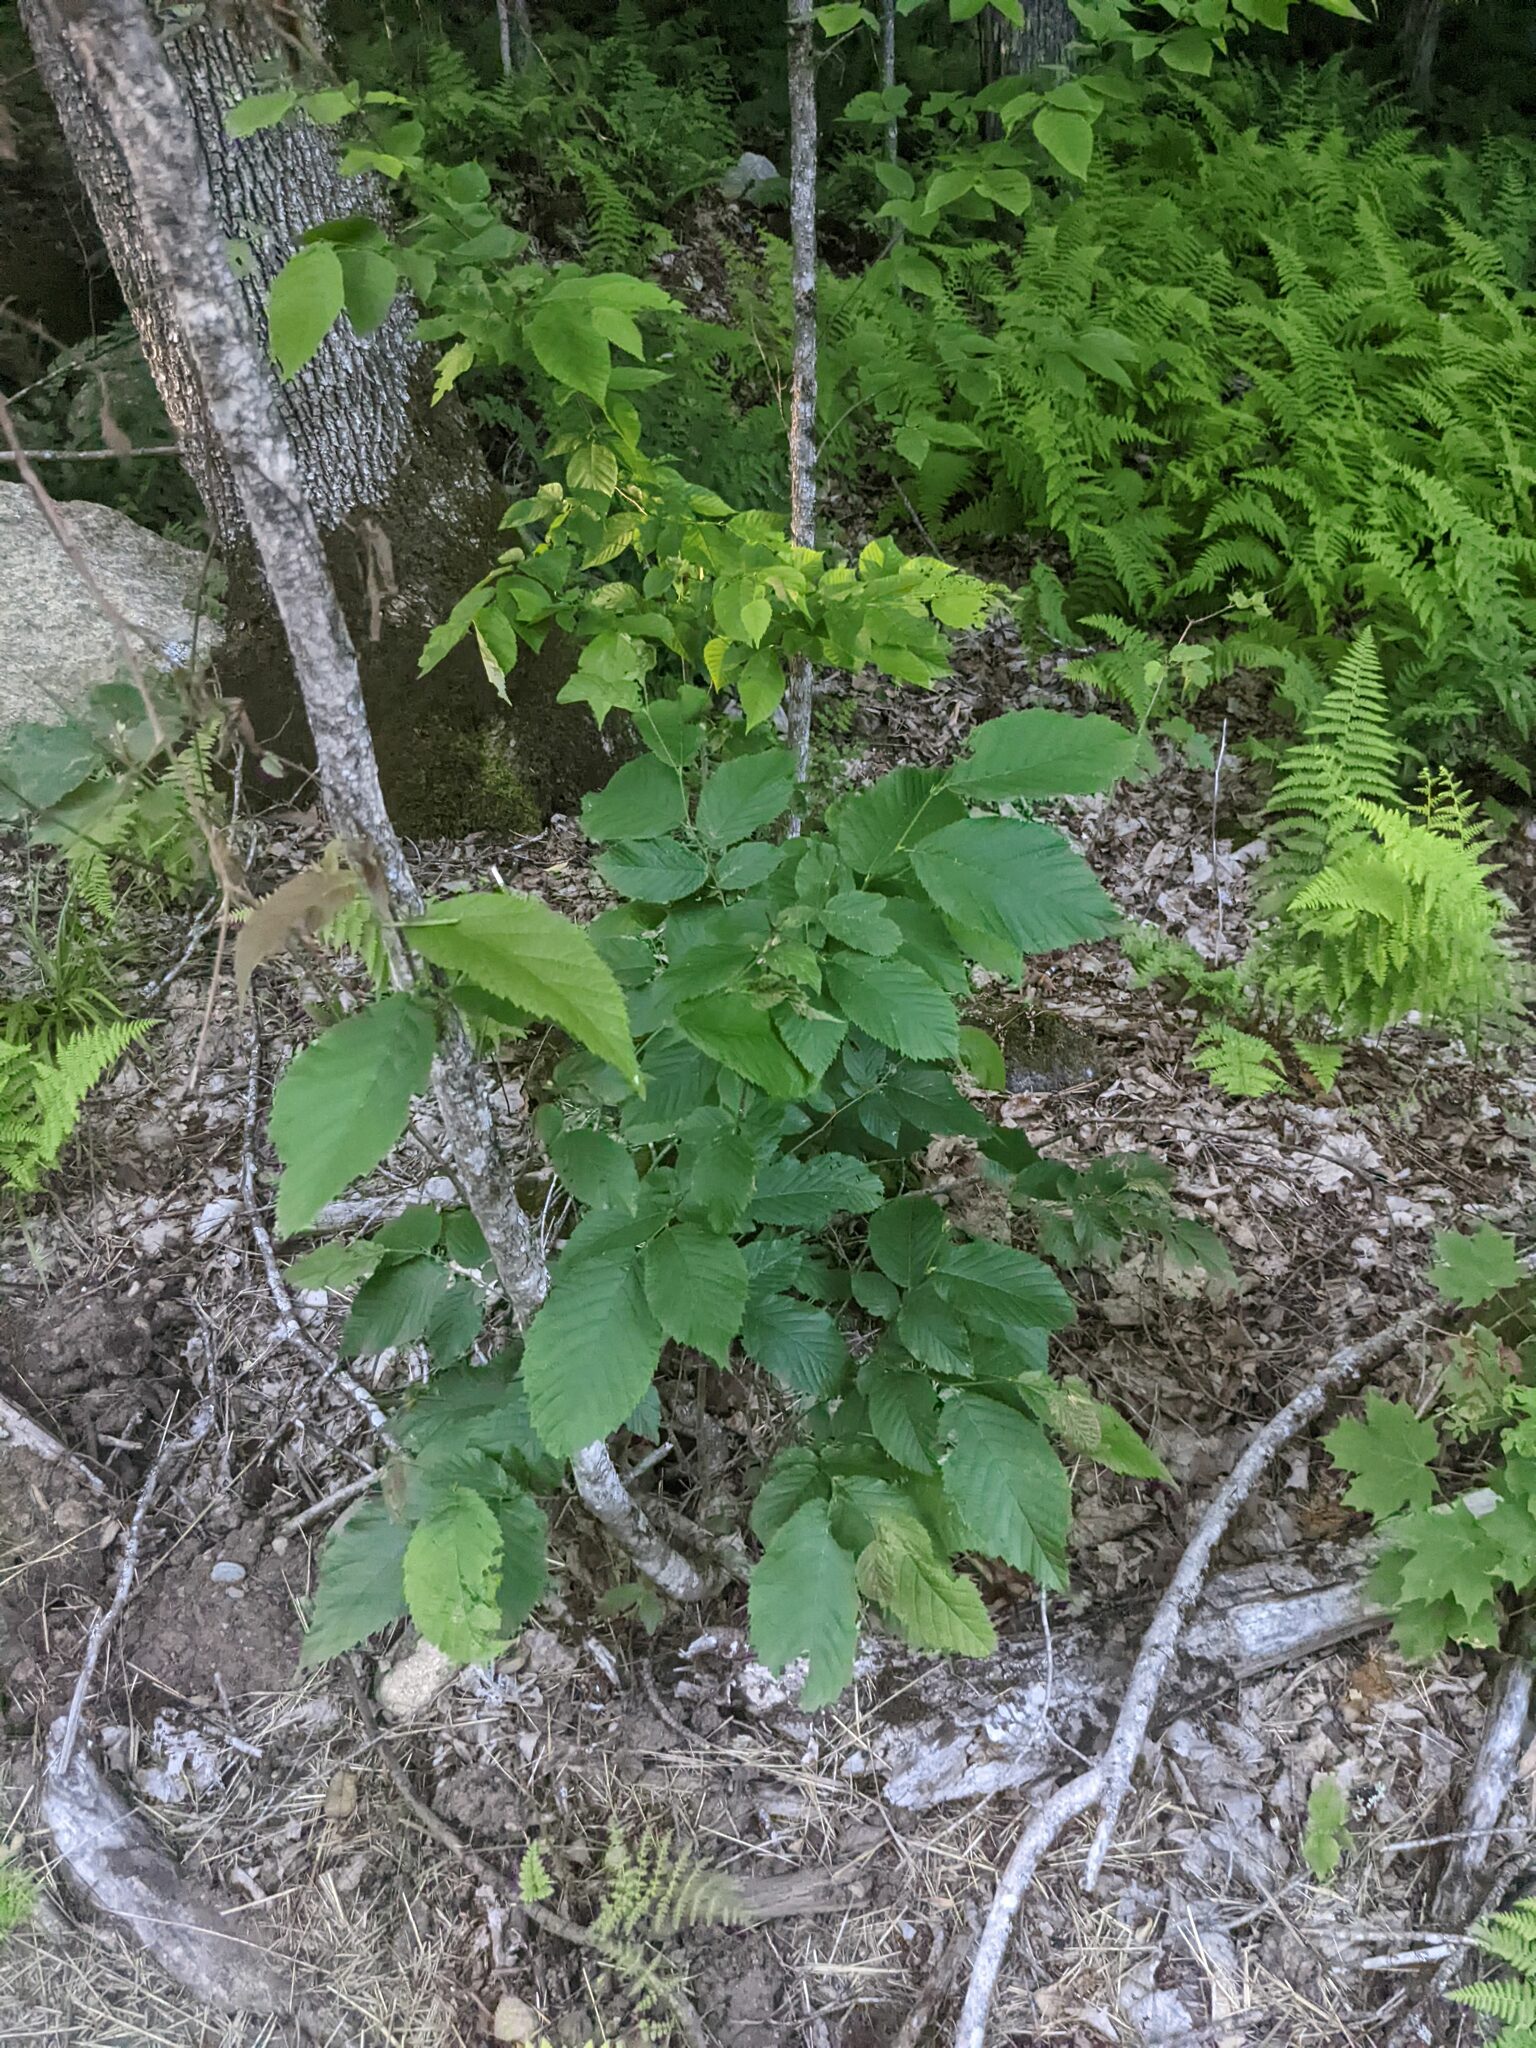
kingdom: Plantae
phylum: Tracheophyta
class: Magnoliopsida
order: Fagales
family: Fagaceae
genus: Fagus
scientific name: Fagus grandifolia
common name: American beech
